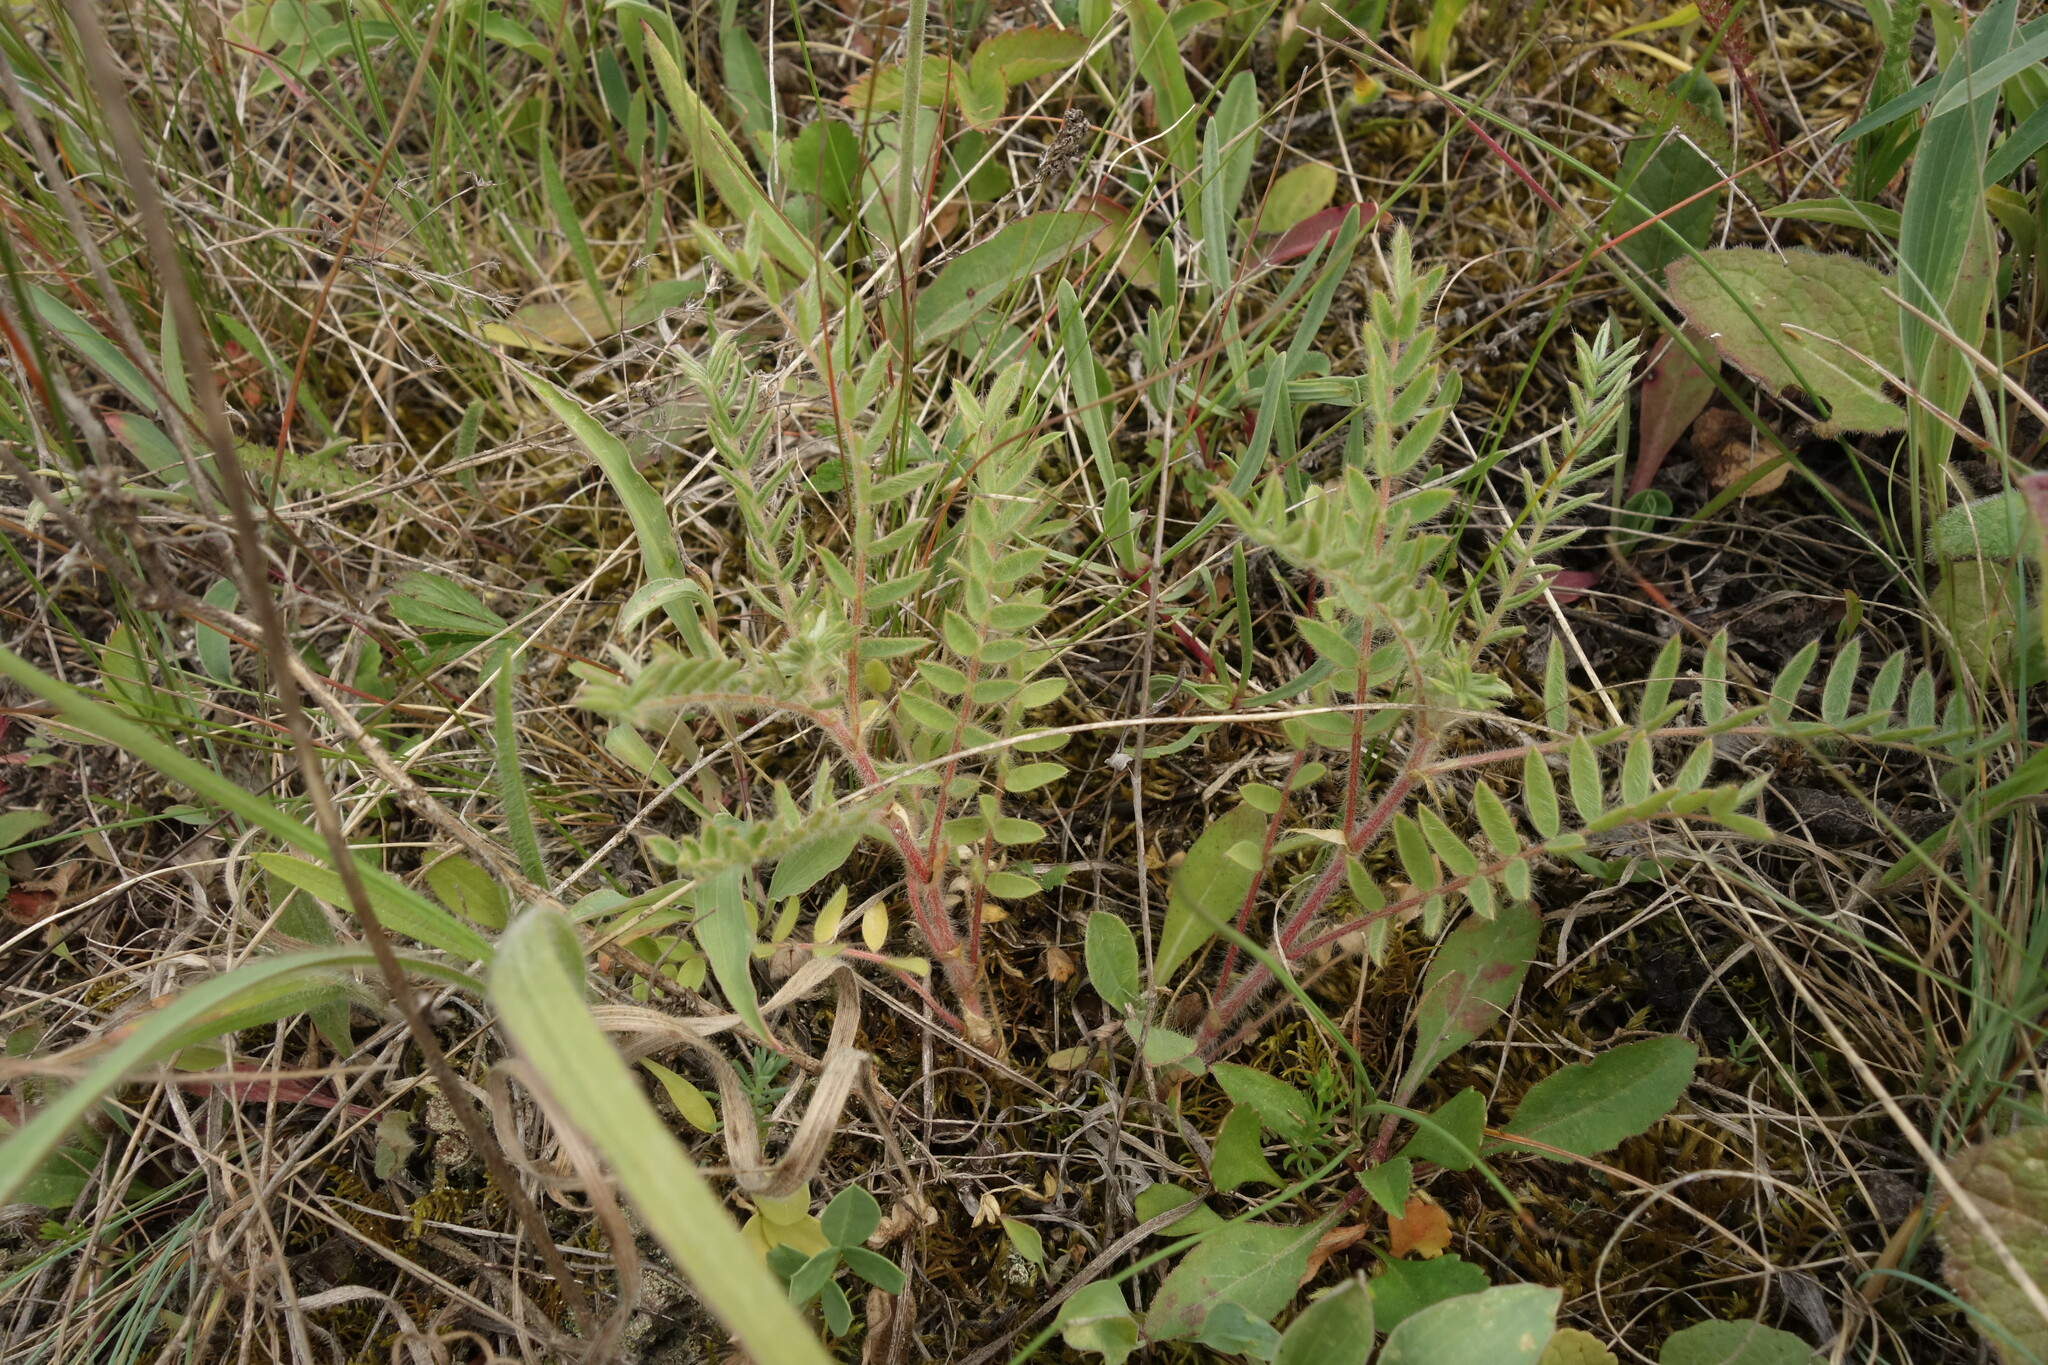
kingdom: Plantae
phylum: Tracheophyta
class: Magnoliopsida
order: Fabales
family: Fabaceae
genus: Oxytropis
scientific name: Oxytropis pilosa
